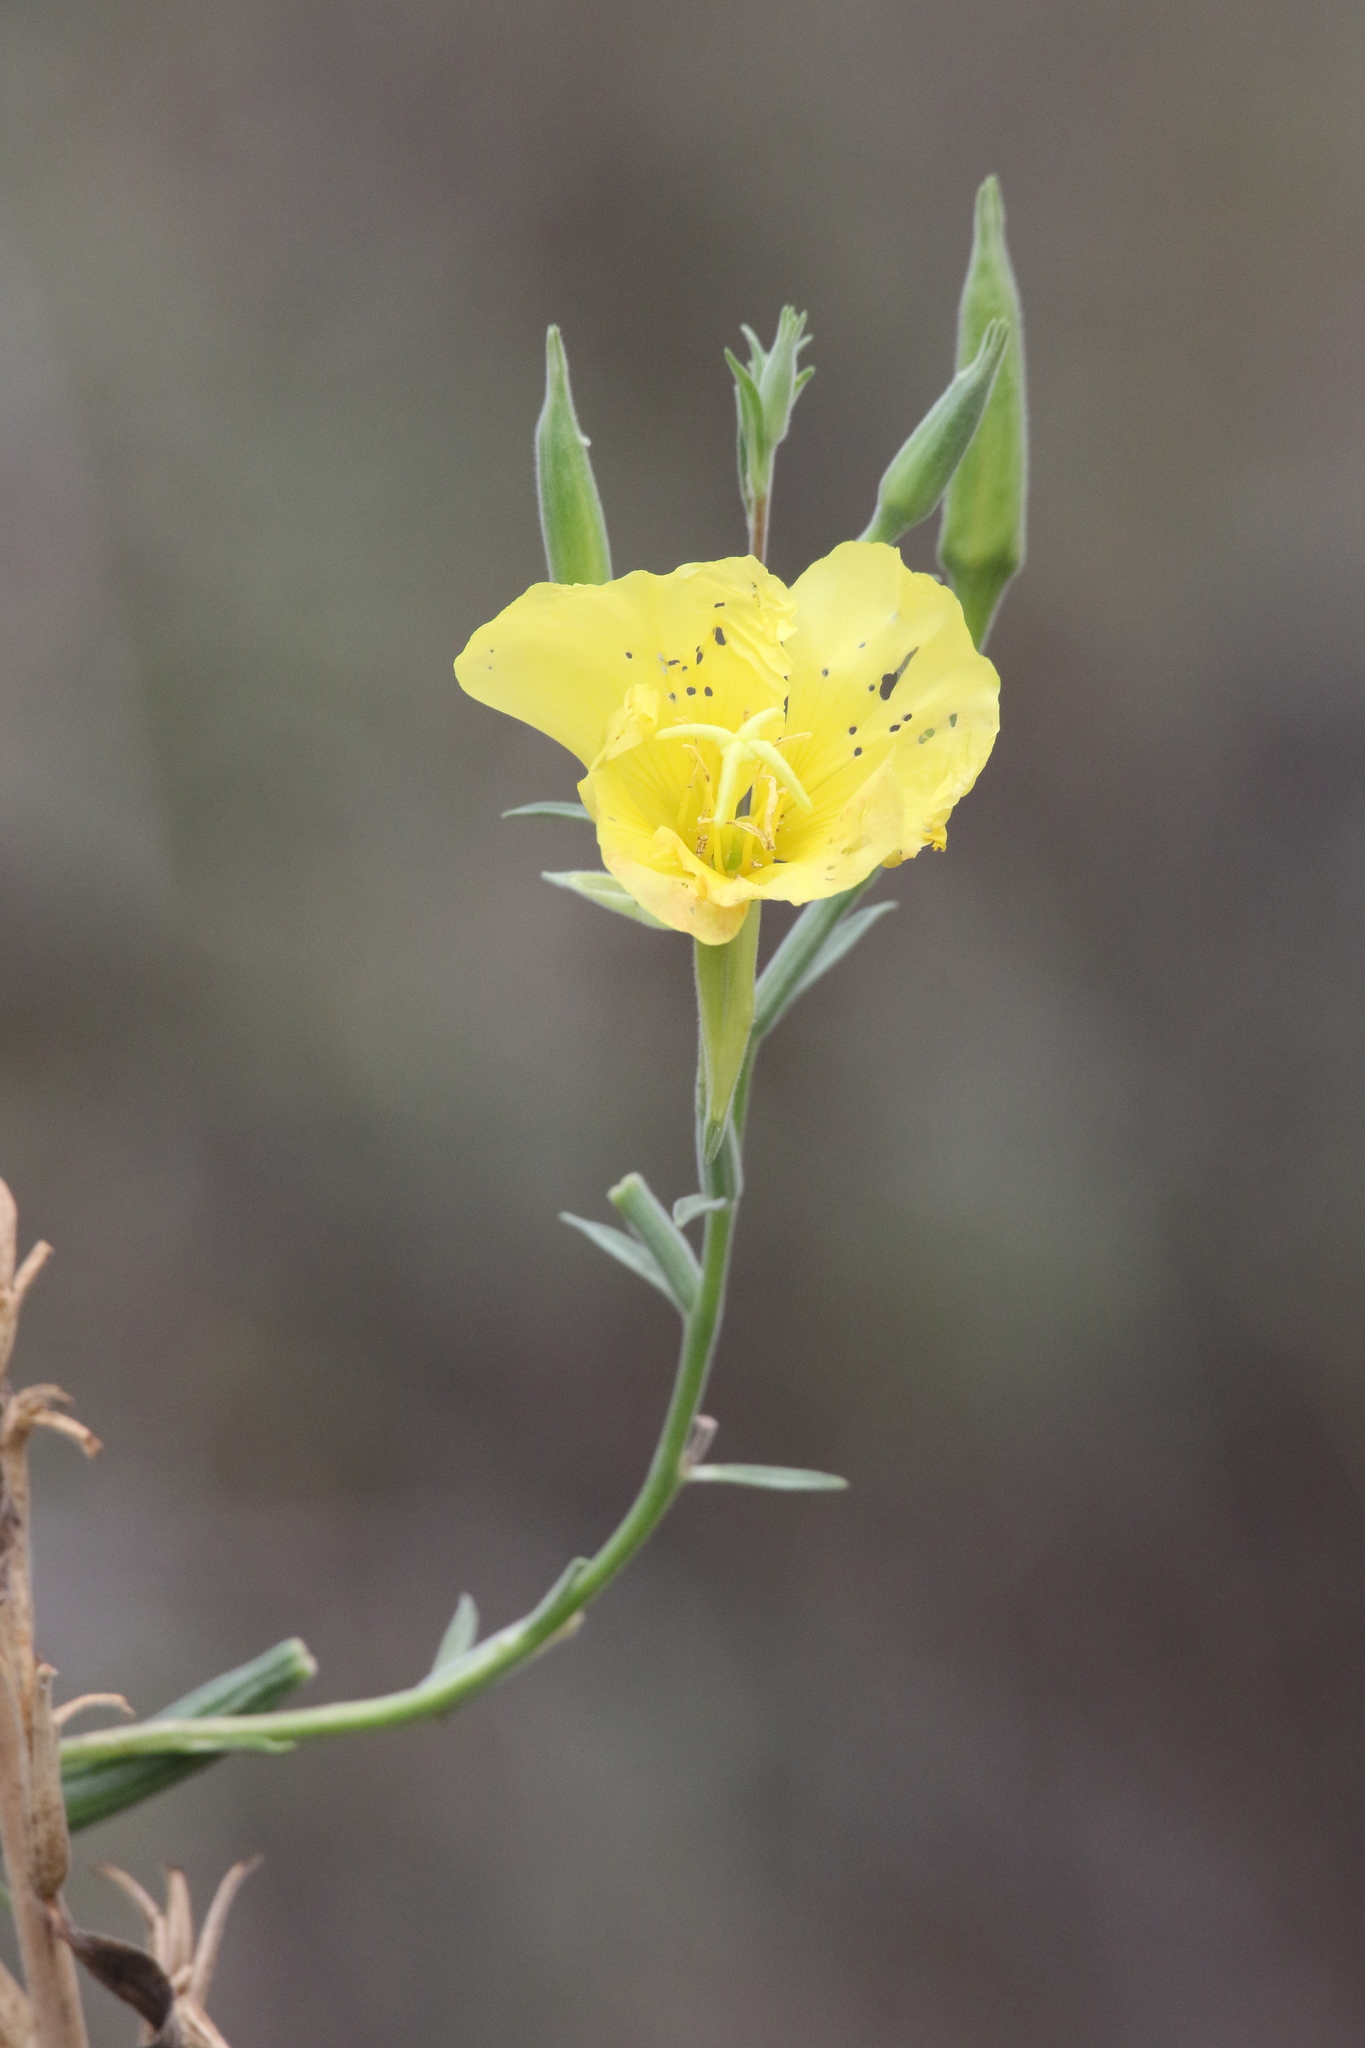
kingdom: Plantae
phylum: Tracheophyta
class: Magnoliopsida
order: Myrtales
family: Onagraceae
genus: Oenothera
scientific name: Oenothera elata
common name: Hooker's evening-primrose
